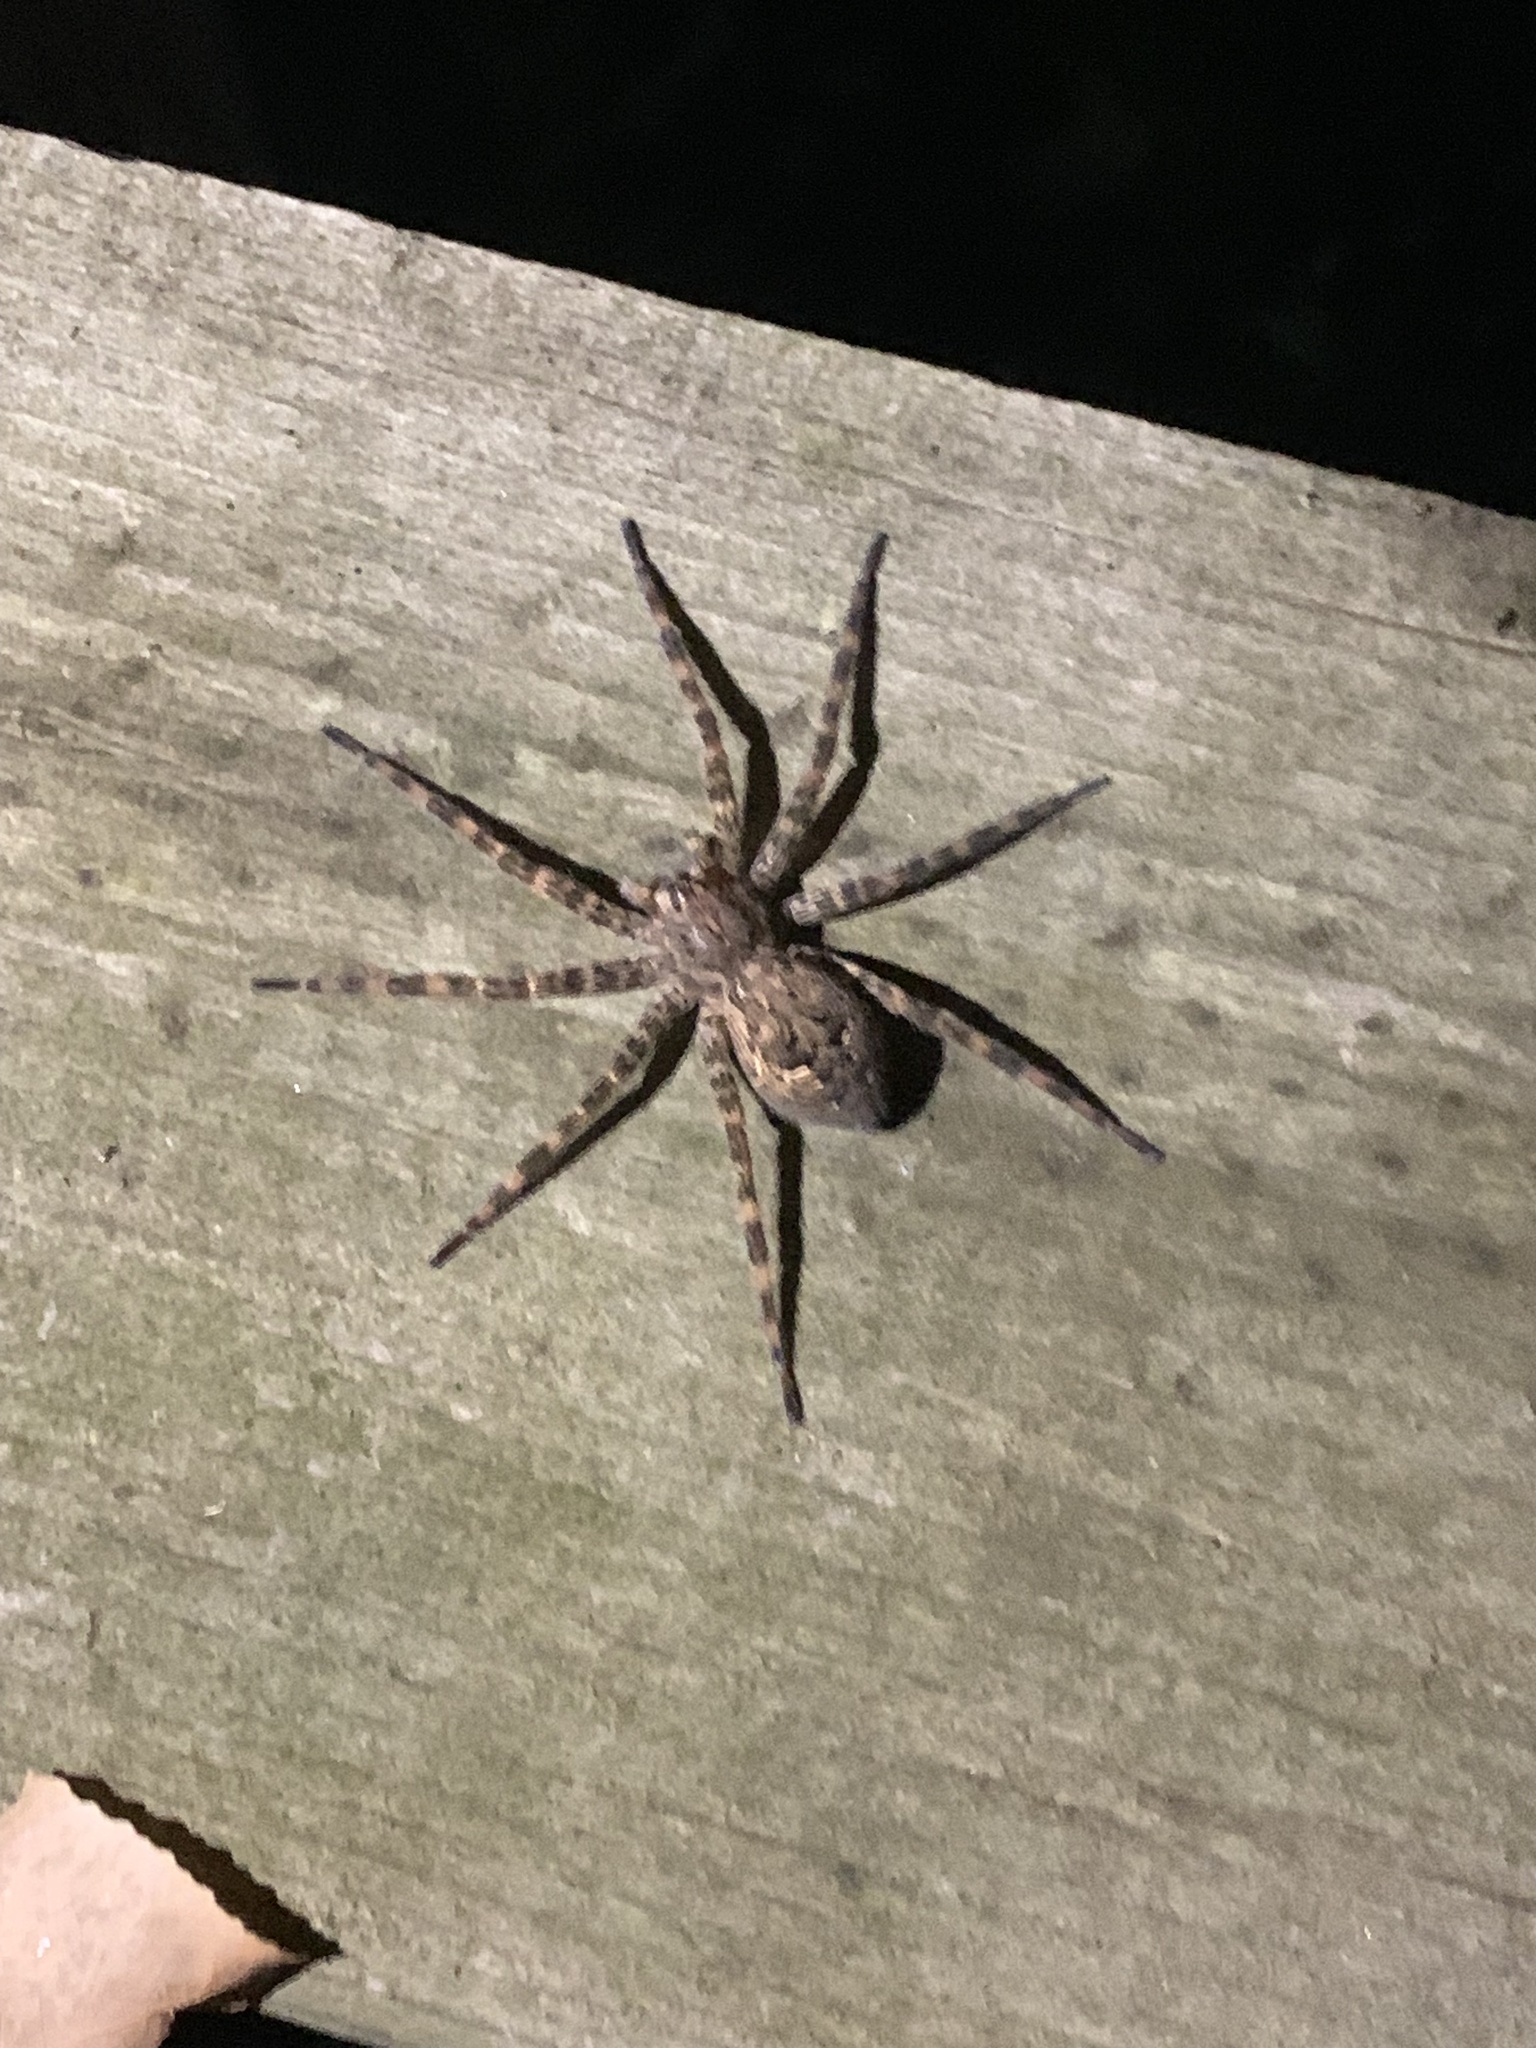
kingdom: Animalia
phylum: Arthropoda
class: Arachnida
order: Araneae
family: Pisauridae
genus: Dolomedes
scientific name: Dolomedes tenebrosus
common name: Dark fishing spider
